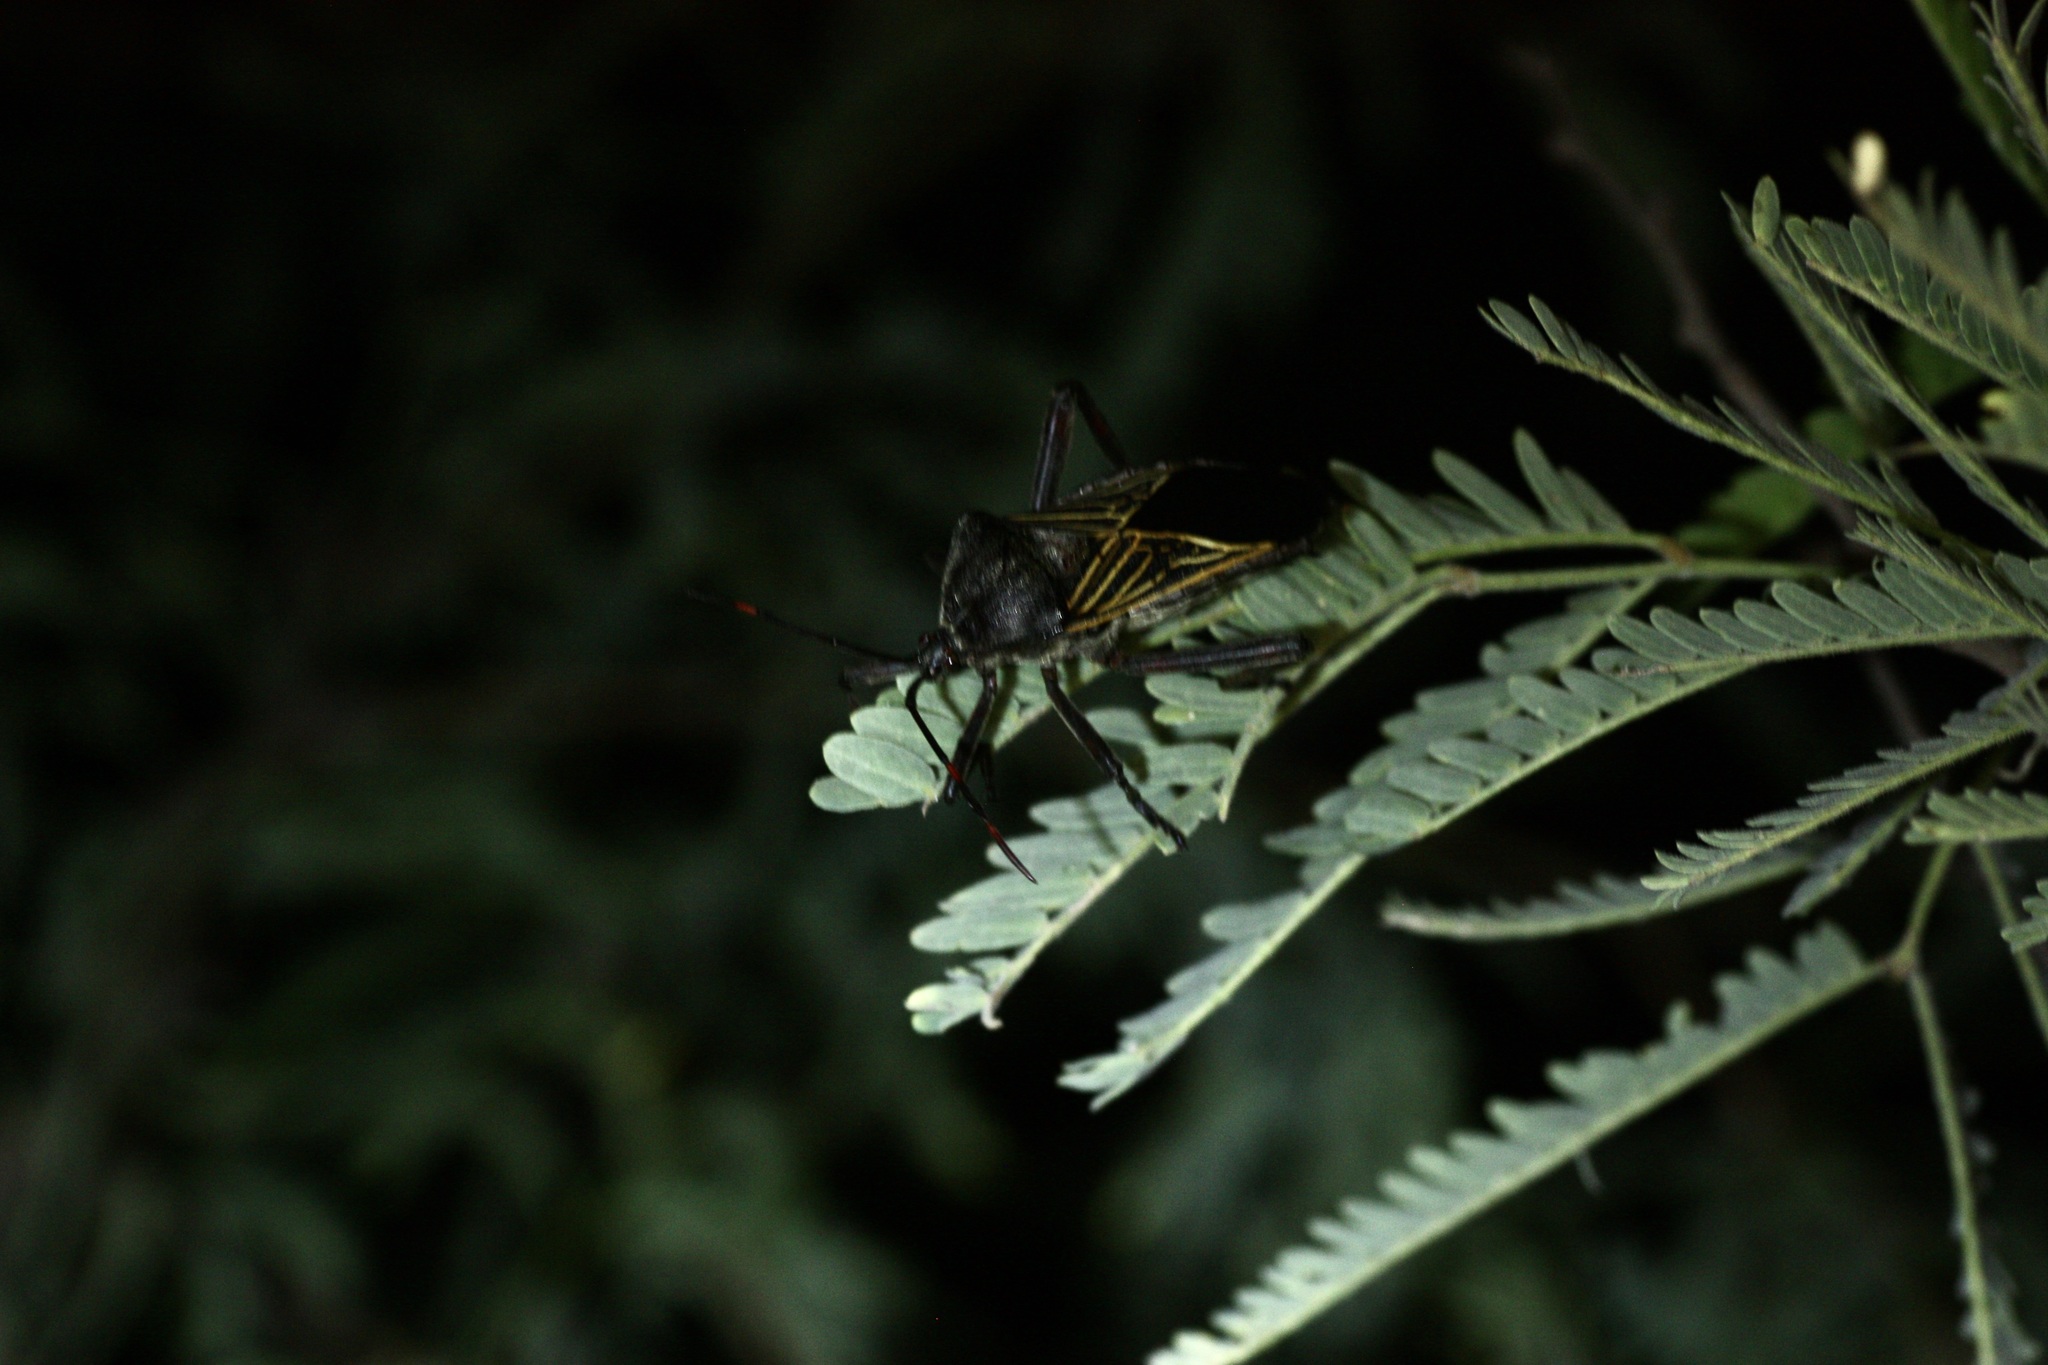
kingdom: Animalia
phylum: Arthropoda
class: Insecta
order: Hemiptera
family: Coreidae
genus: Thasus
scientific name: Thasus neocalifornicus
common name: Giant mesquite bug
